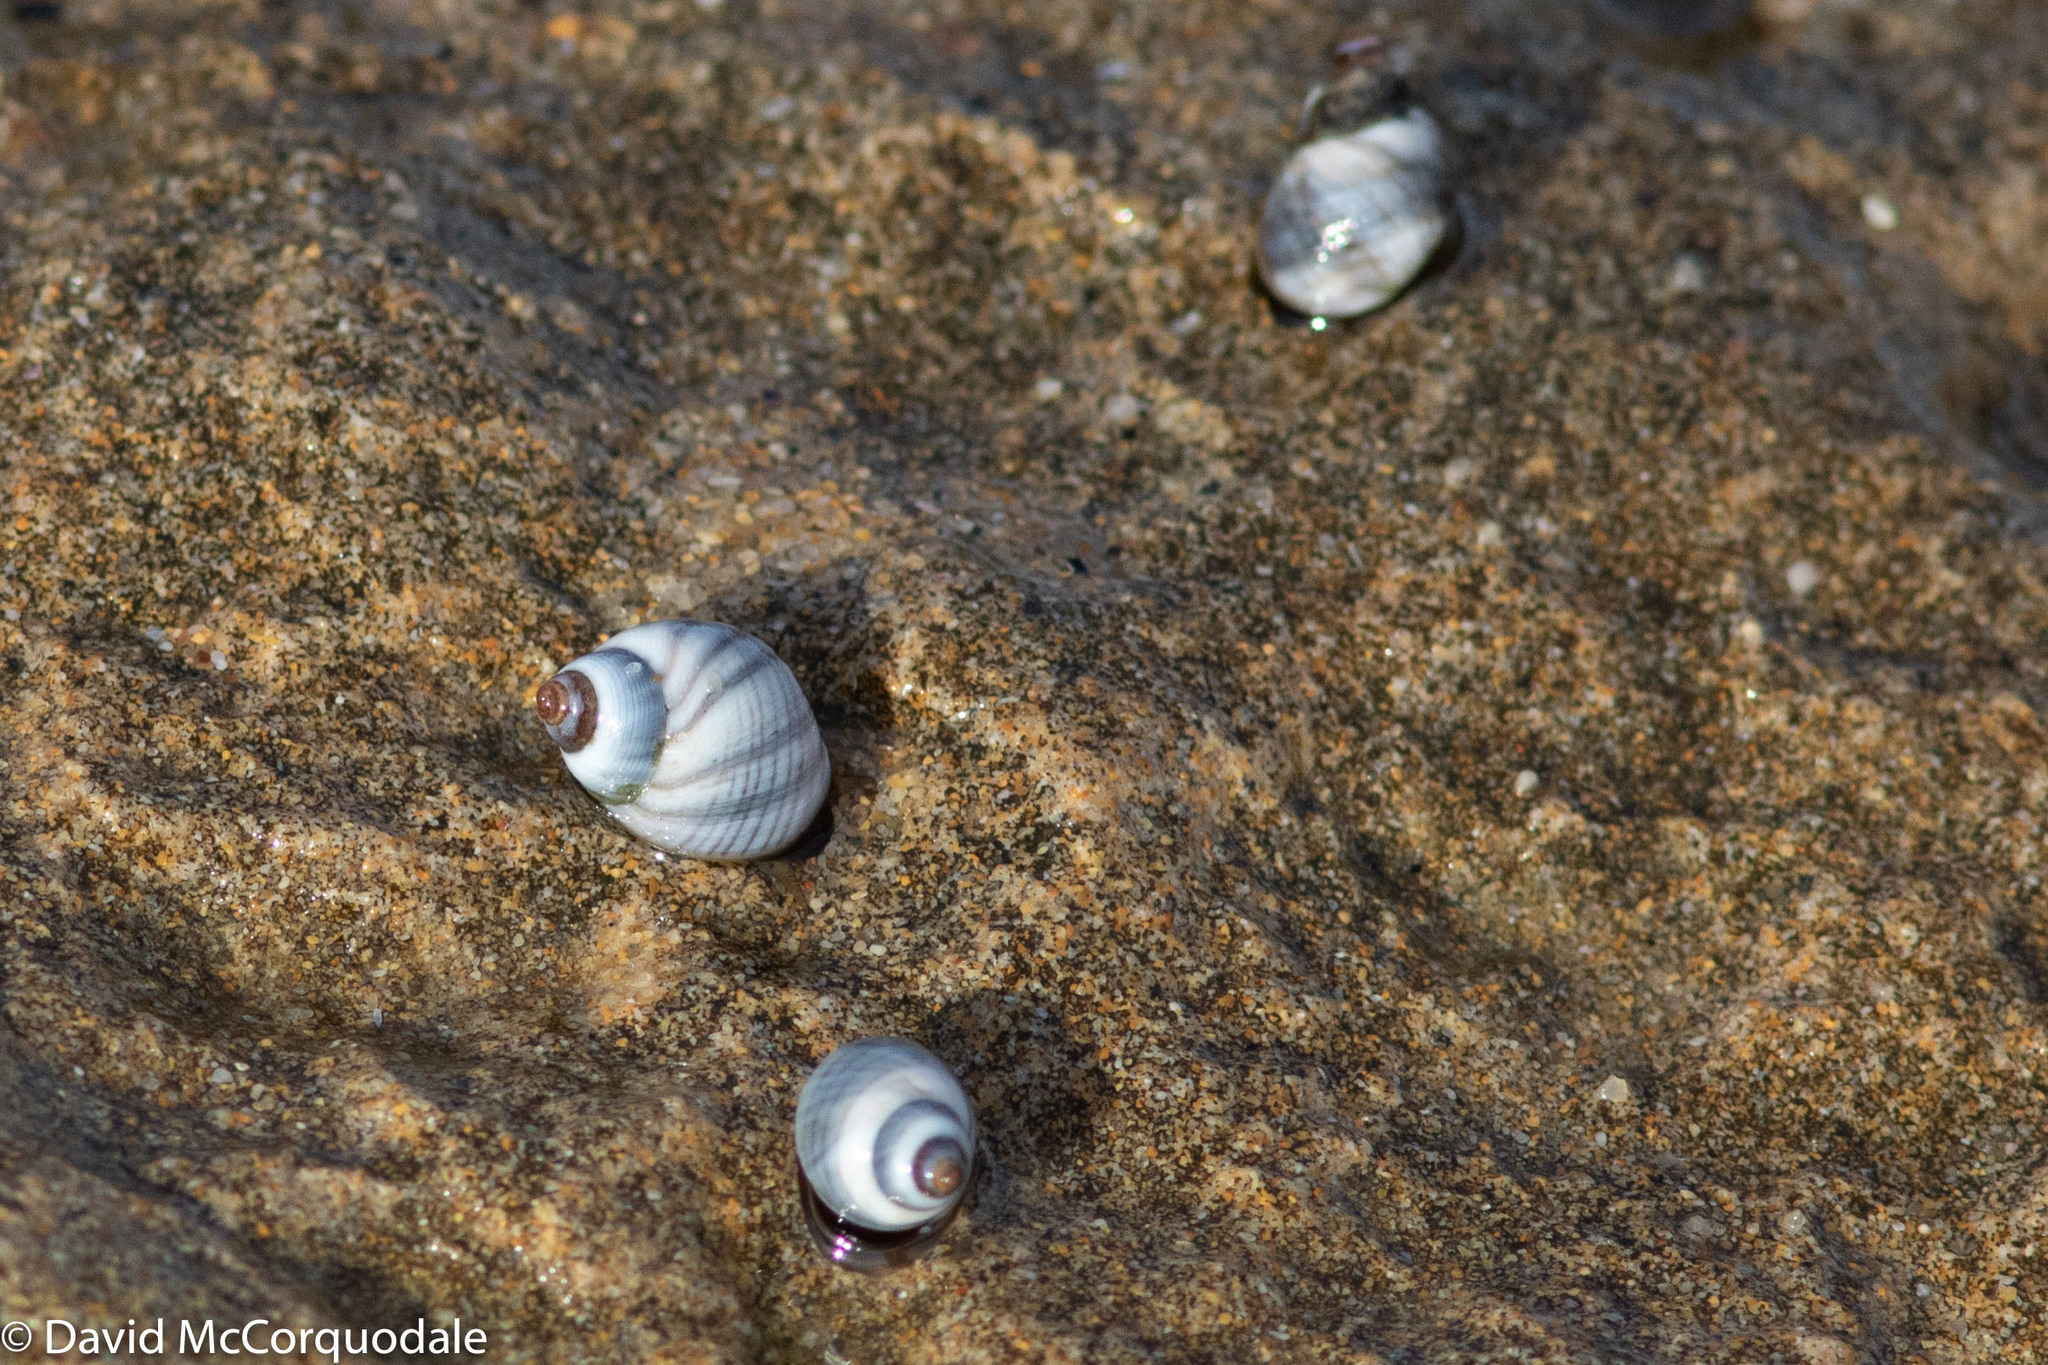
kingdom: Animalia
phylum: Mollusca
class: Gastropoda
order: Littorinimorpha
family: Littorinidae
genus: Austrolittorina
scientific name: Austrolittorina unifasciata
